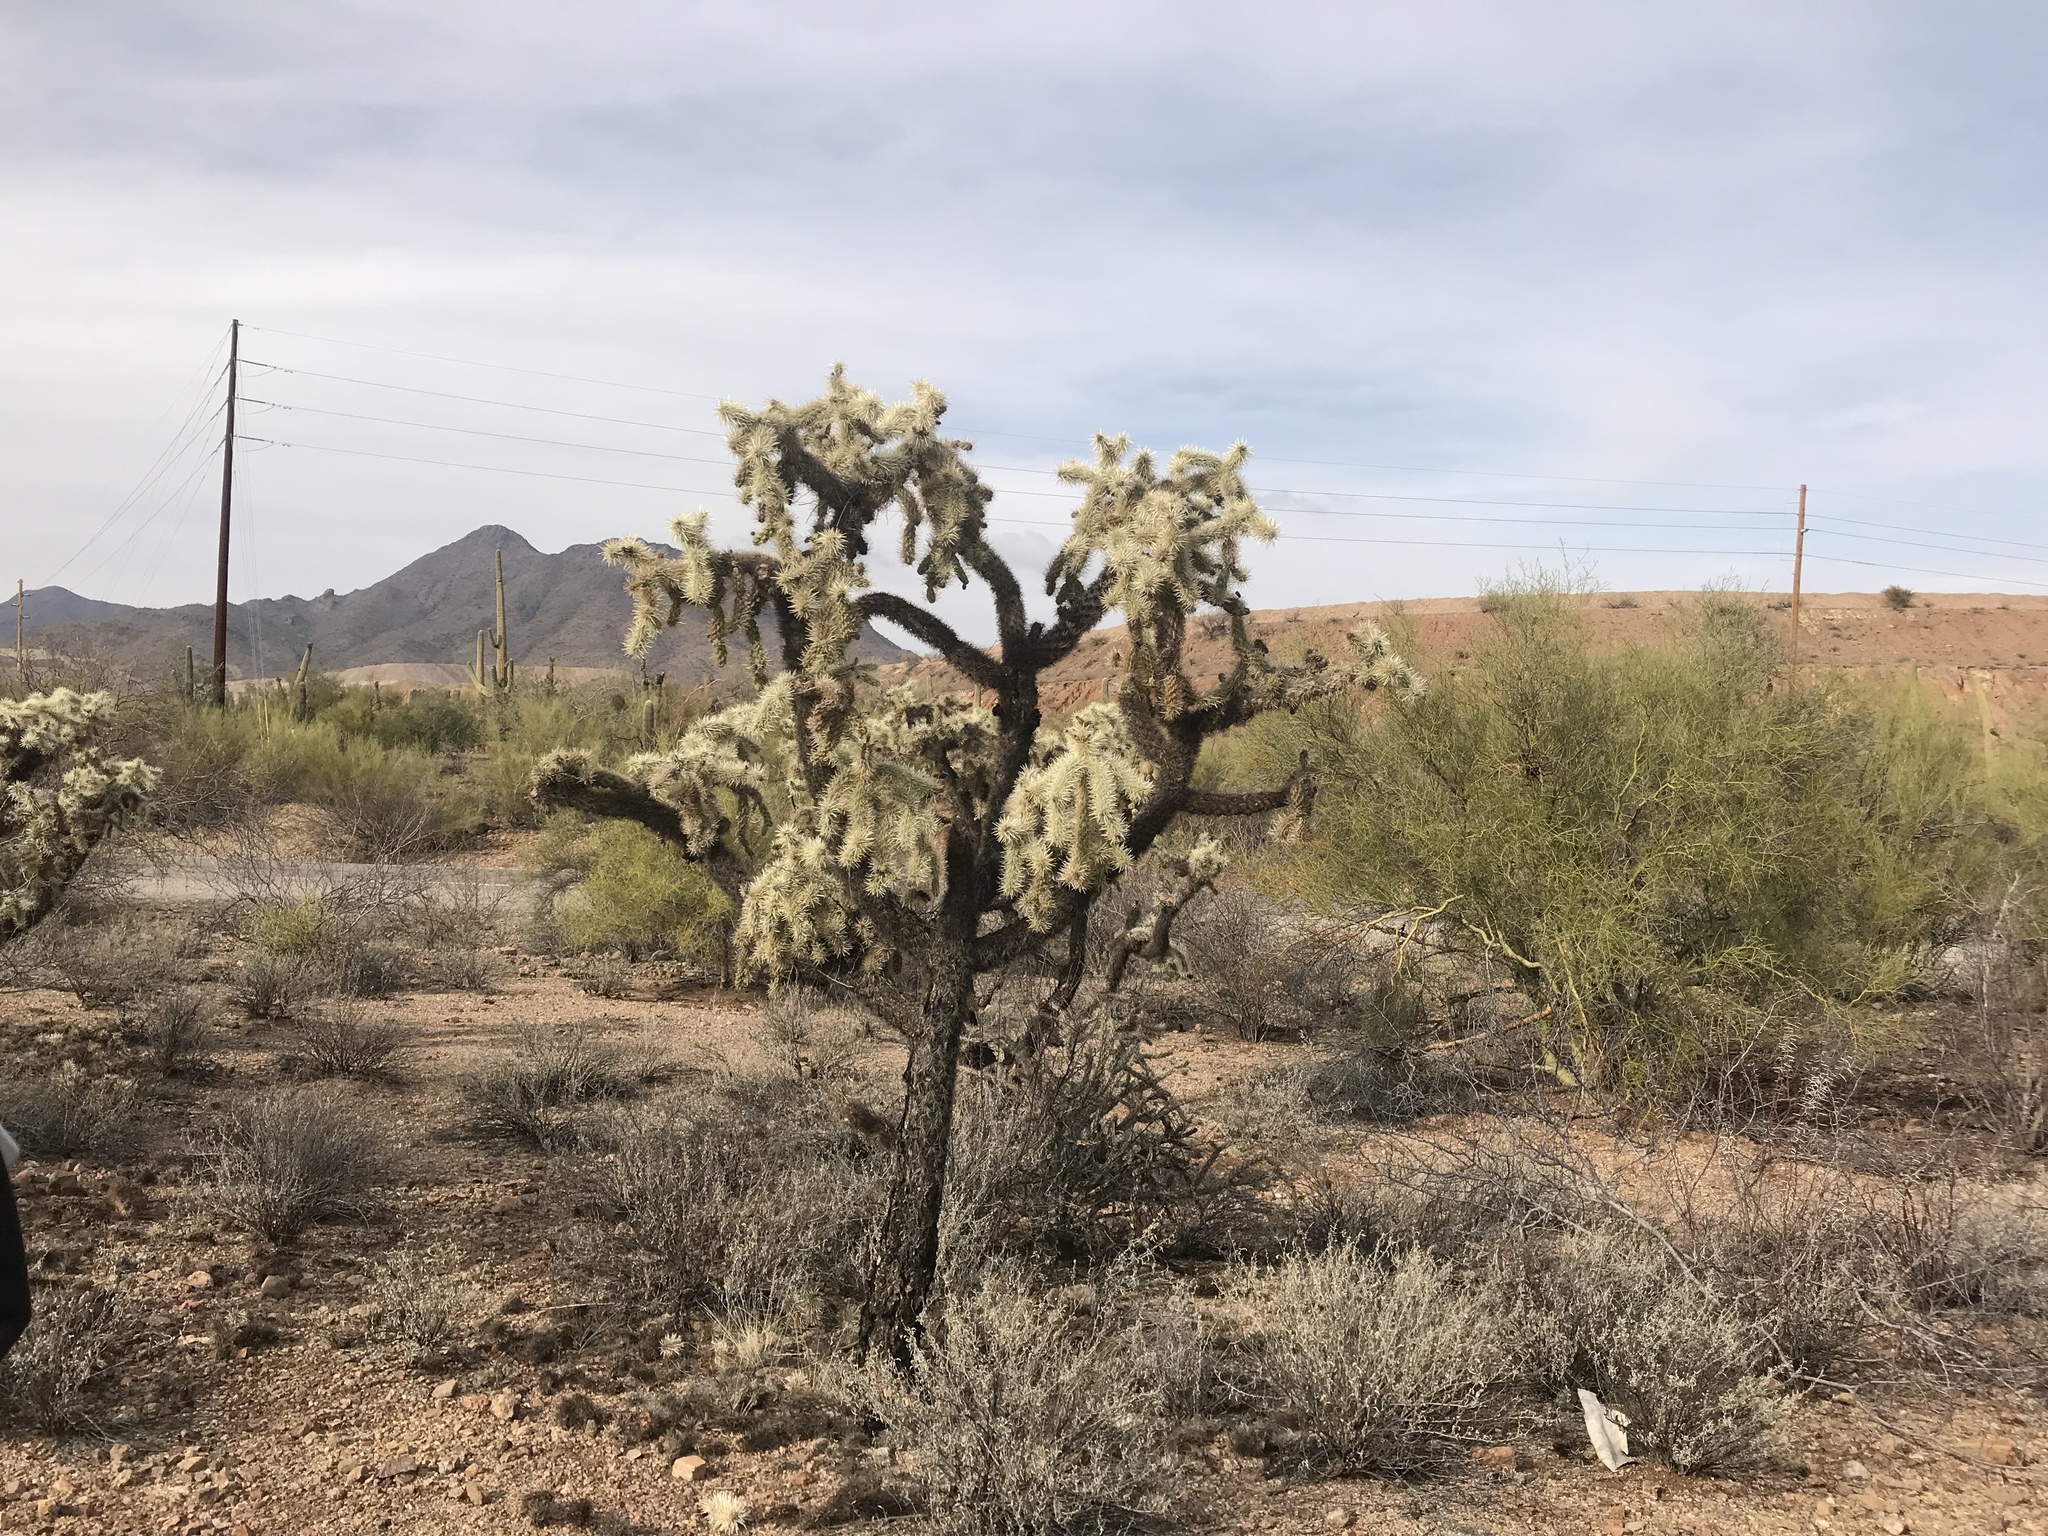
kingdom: Plantae
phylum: Tracheophyta
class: Magnoliopsida
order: Caryophyllales
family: Cactaceae
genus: Cylindropuntia
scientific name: Cylindropuntia fulgida
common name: Jumping cholla
